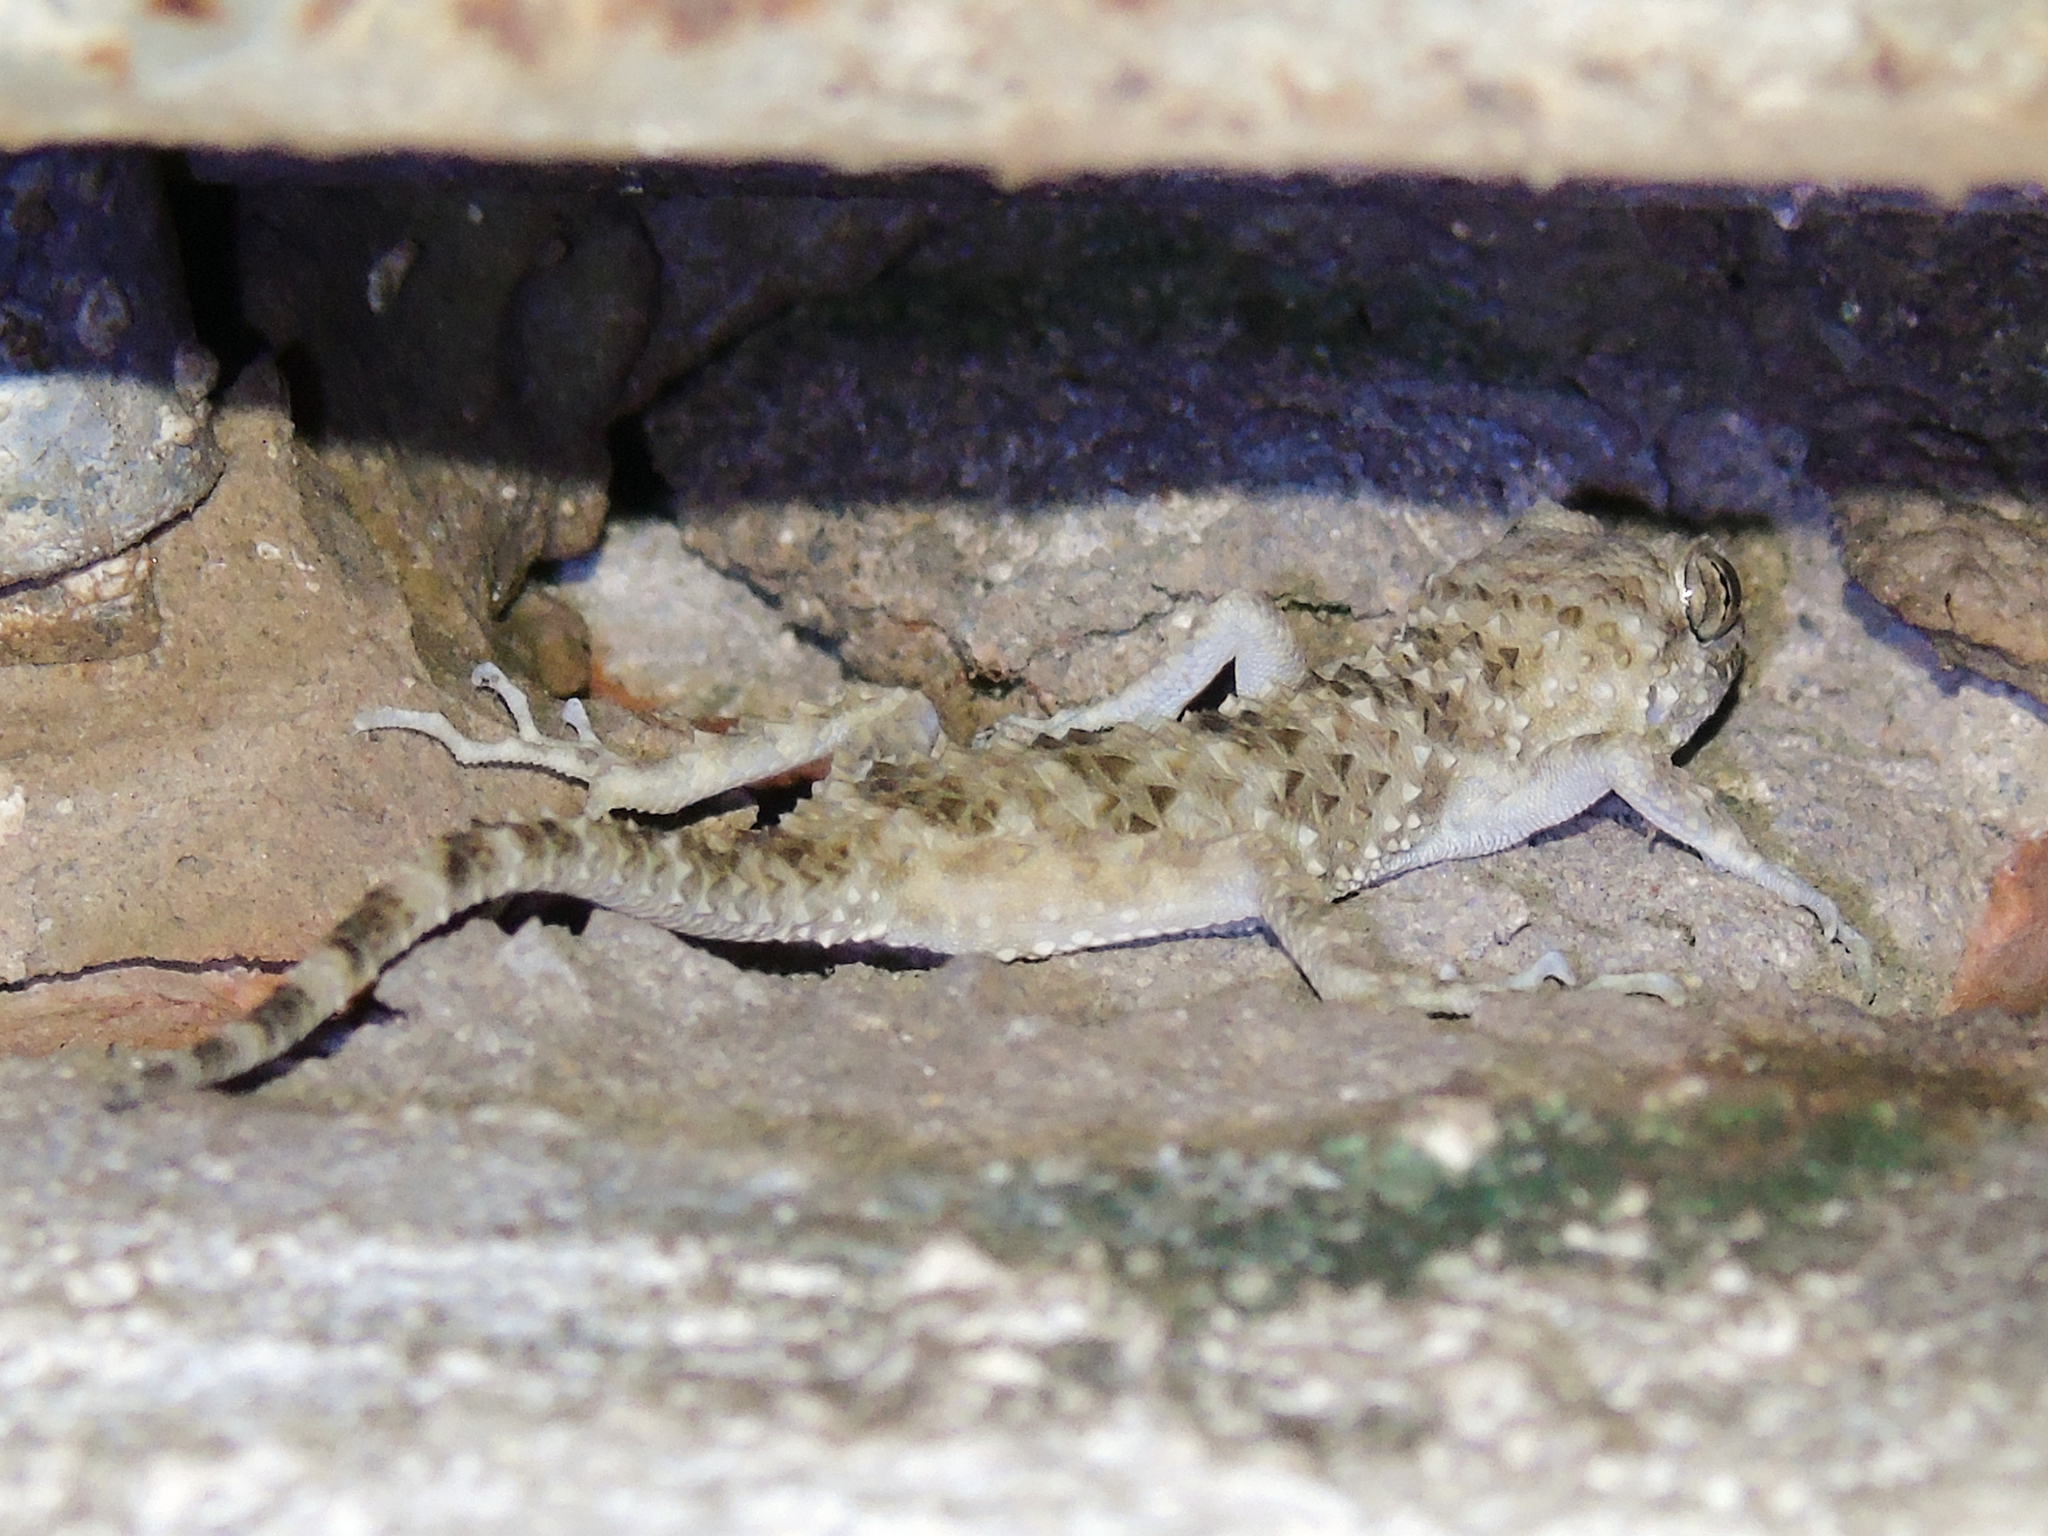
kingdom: Animalia
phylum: Chordata
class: Squamata
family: Gekkonidae
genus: Tenuidactylus
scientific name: Tenuidactylus caspius
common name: Caspian bent-toed gecko
